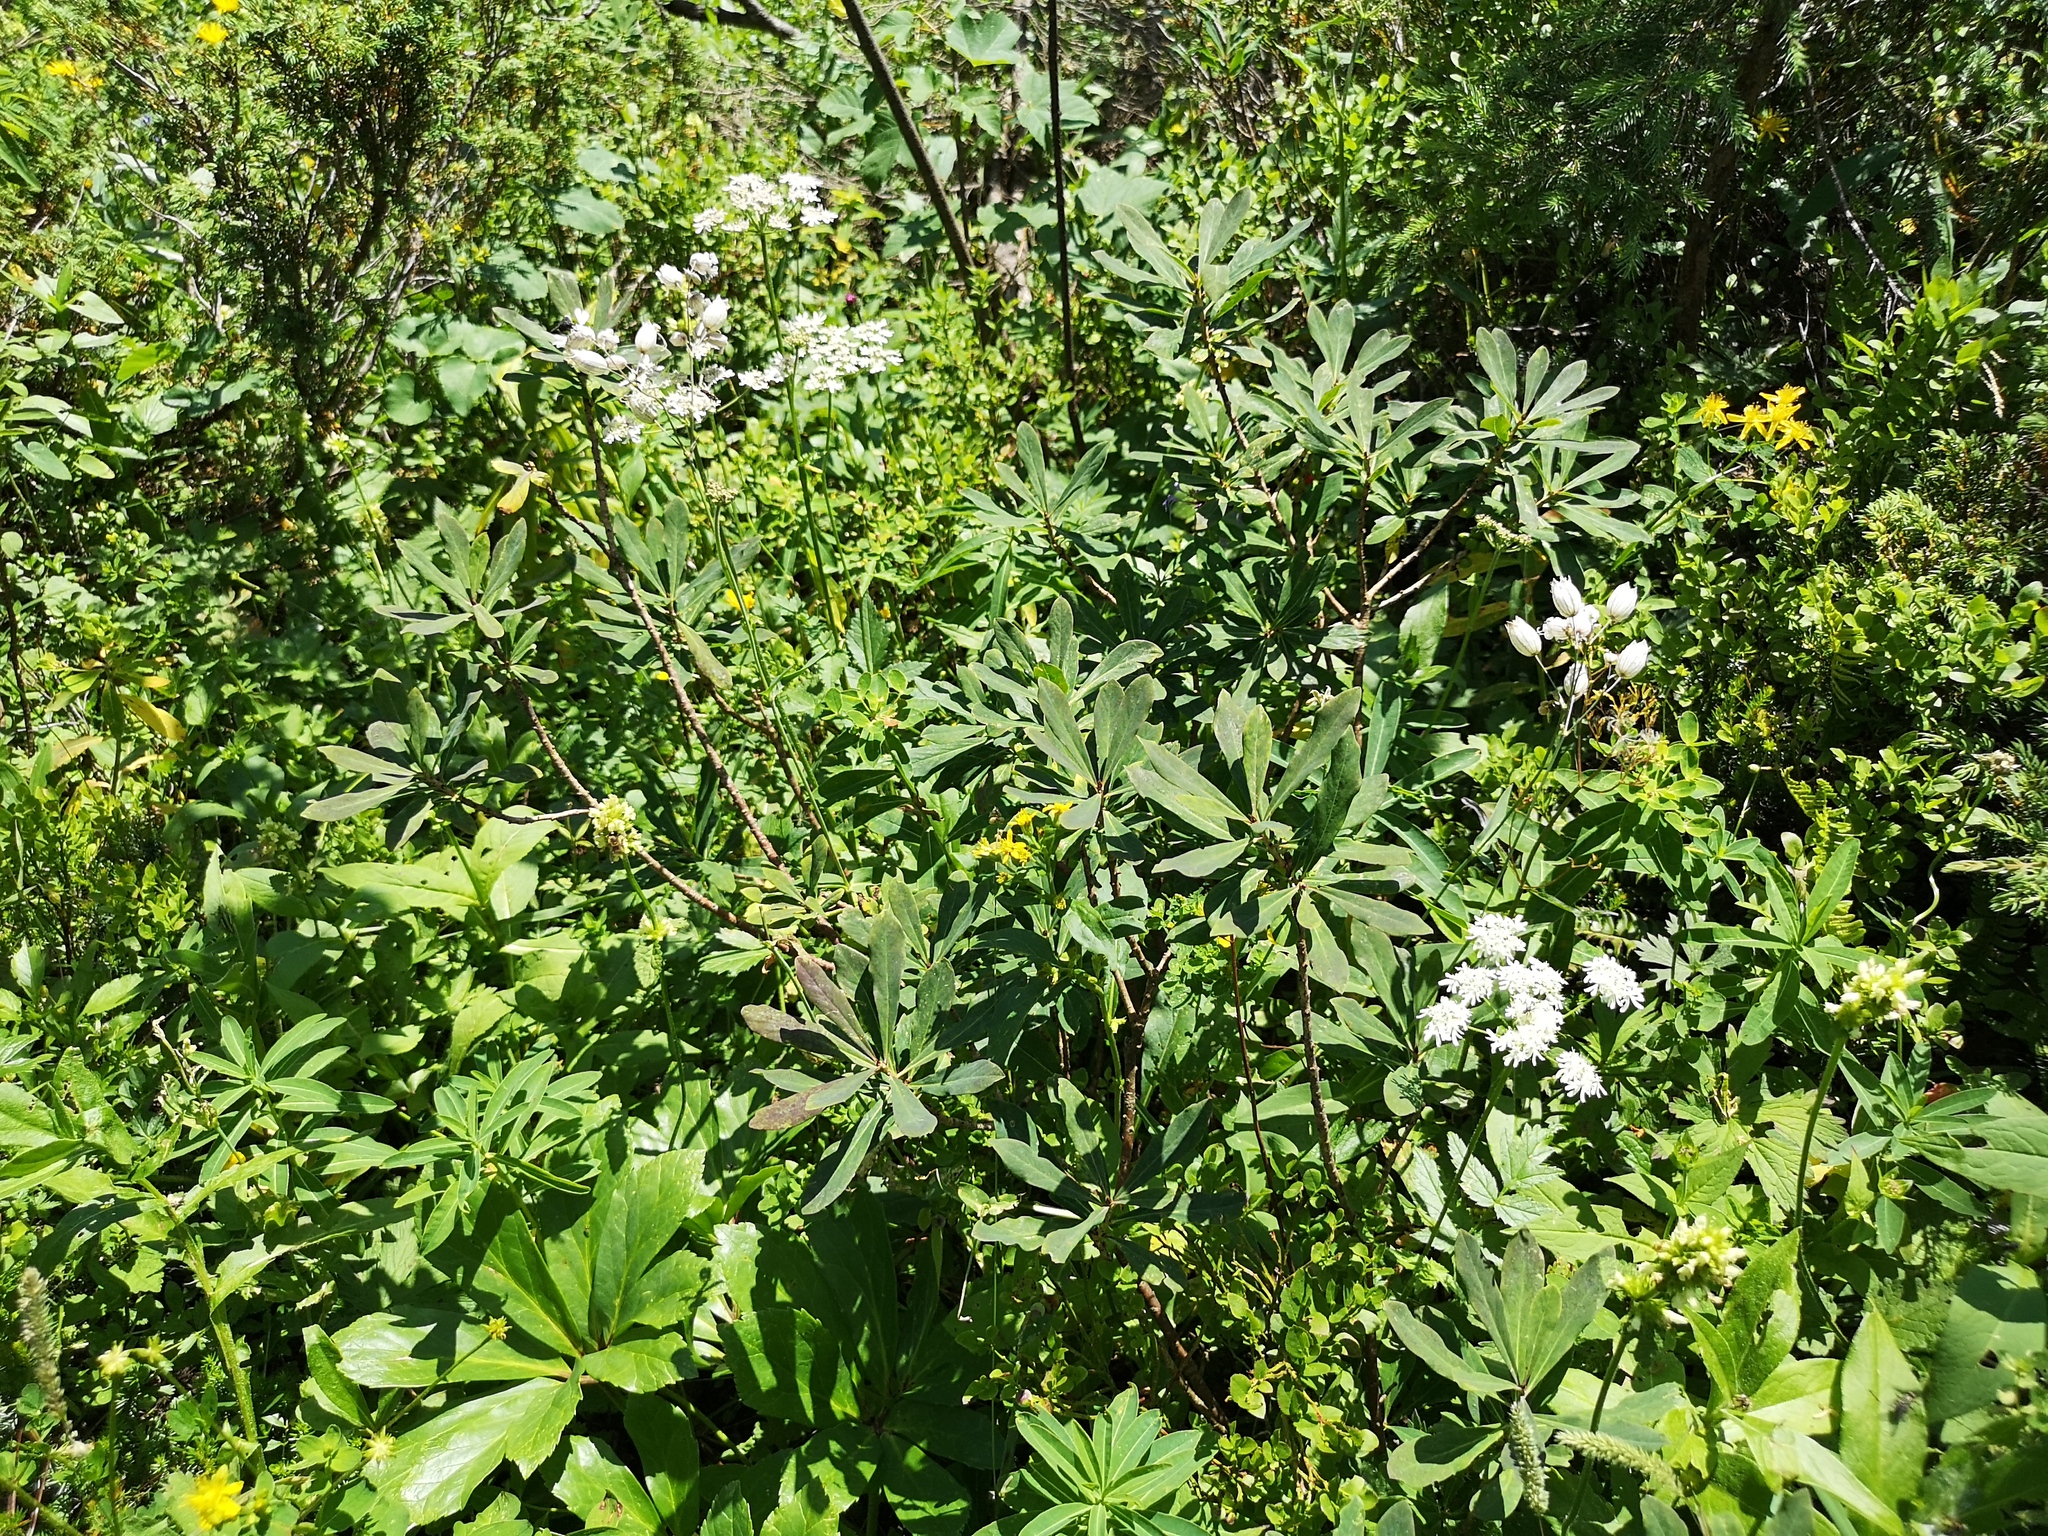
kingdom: Plantae
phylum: Tracheophyta
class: Magnoliopsida
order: Malvales
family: Thymelaeaceae
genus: Daphne
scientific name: Daphne mezereum
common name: Mezereon
